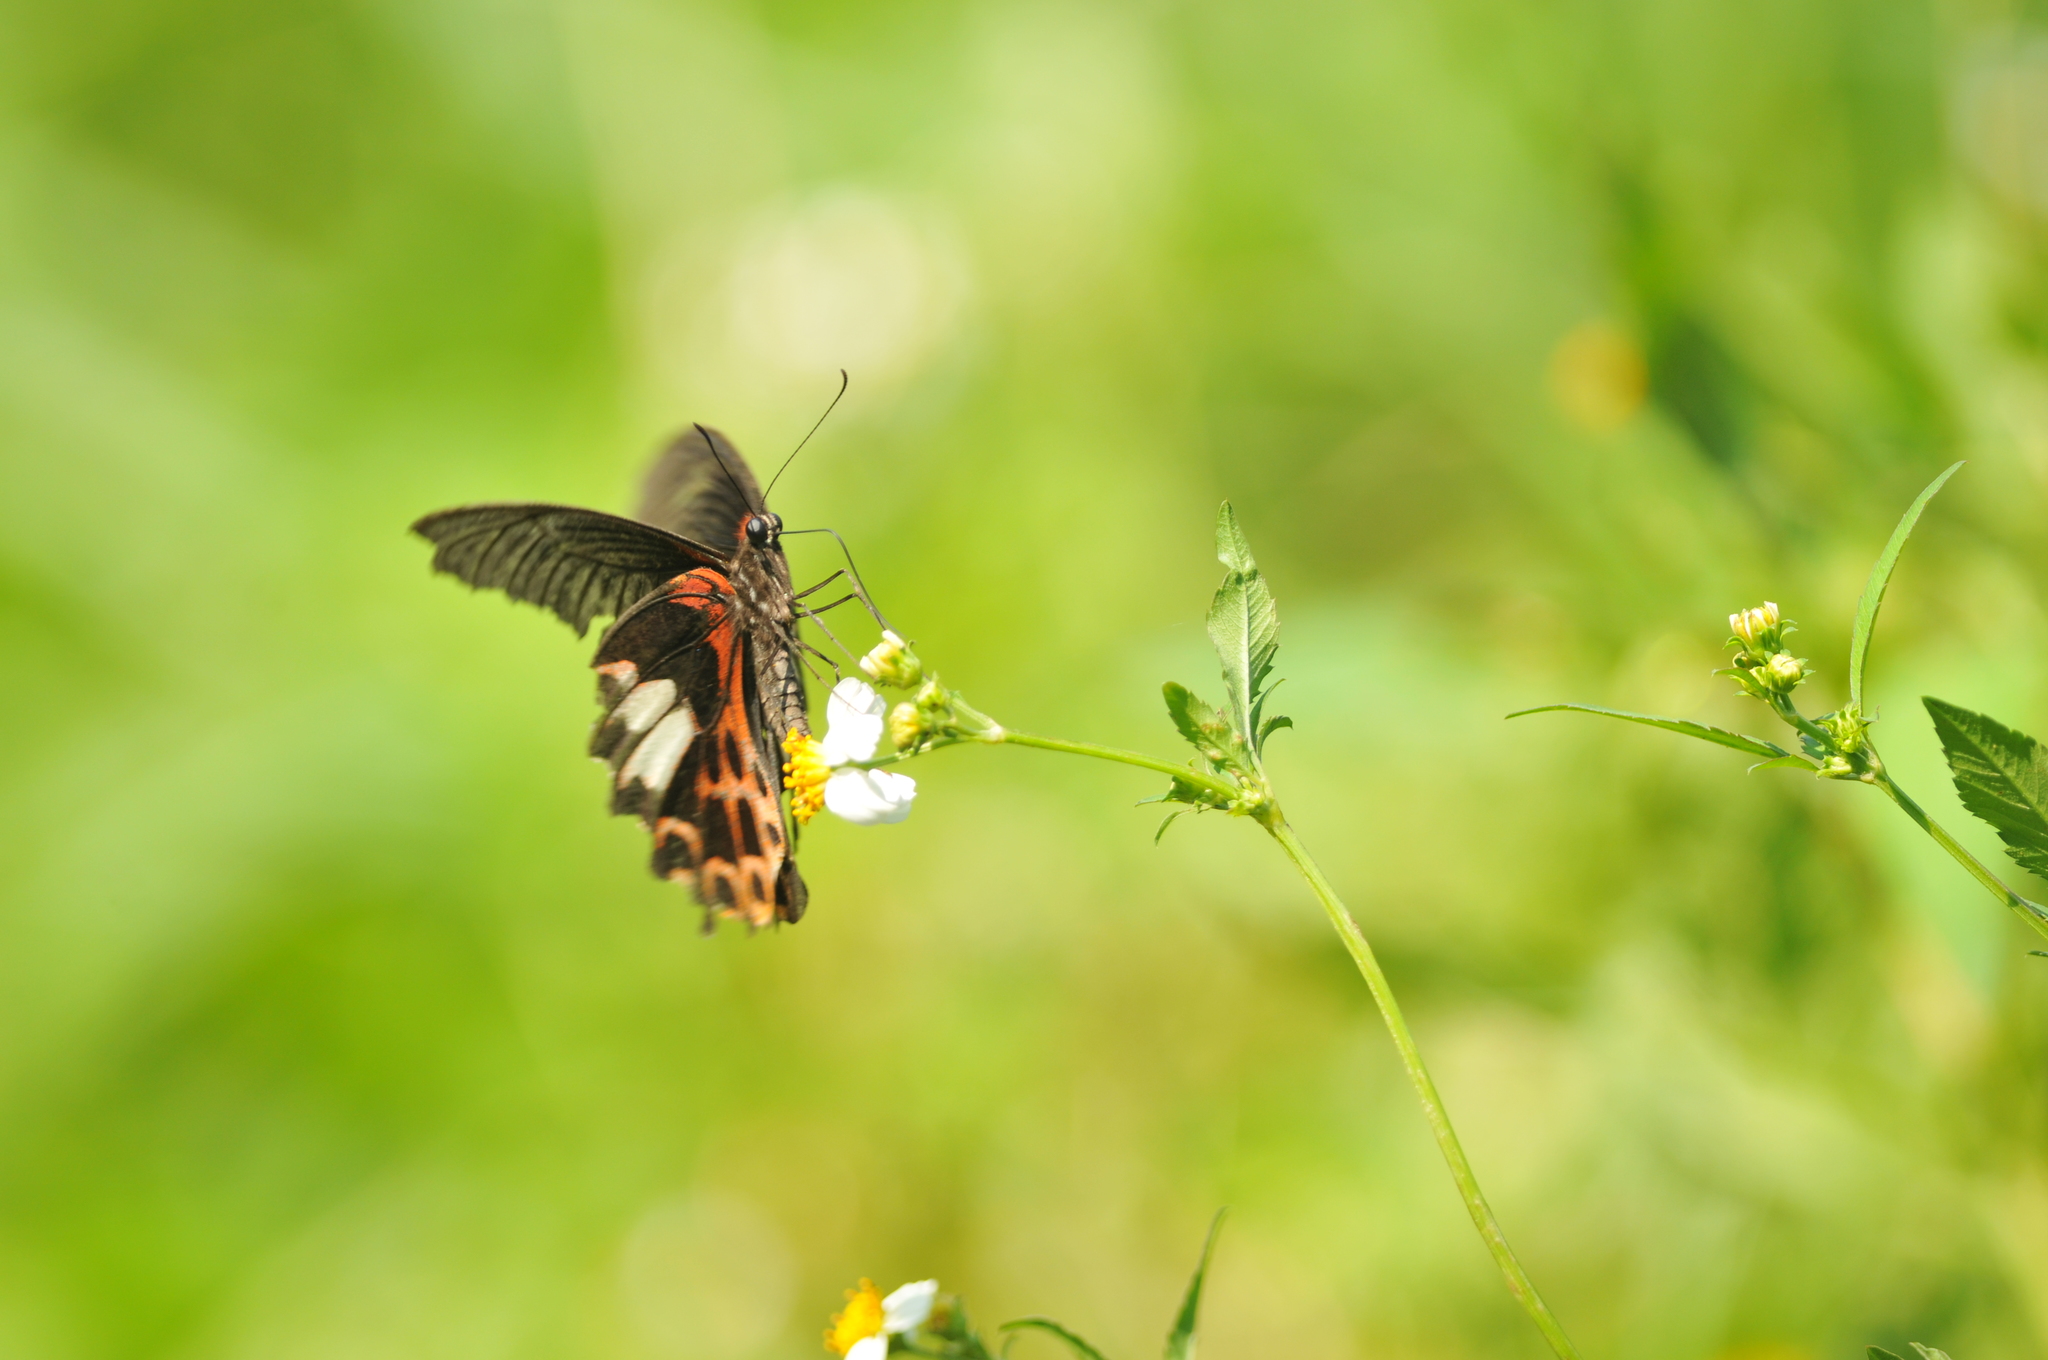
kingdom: Animalia
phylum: Arthropoda
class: Insecta
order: Lepidoptera
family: Papilionidae
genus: Papilio
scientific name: Papilio thaiwanus
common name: Formosan swallowtail
